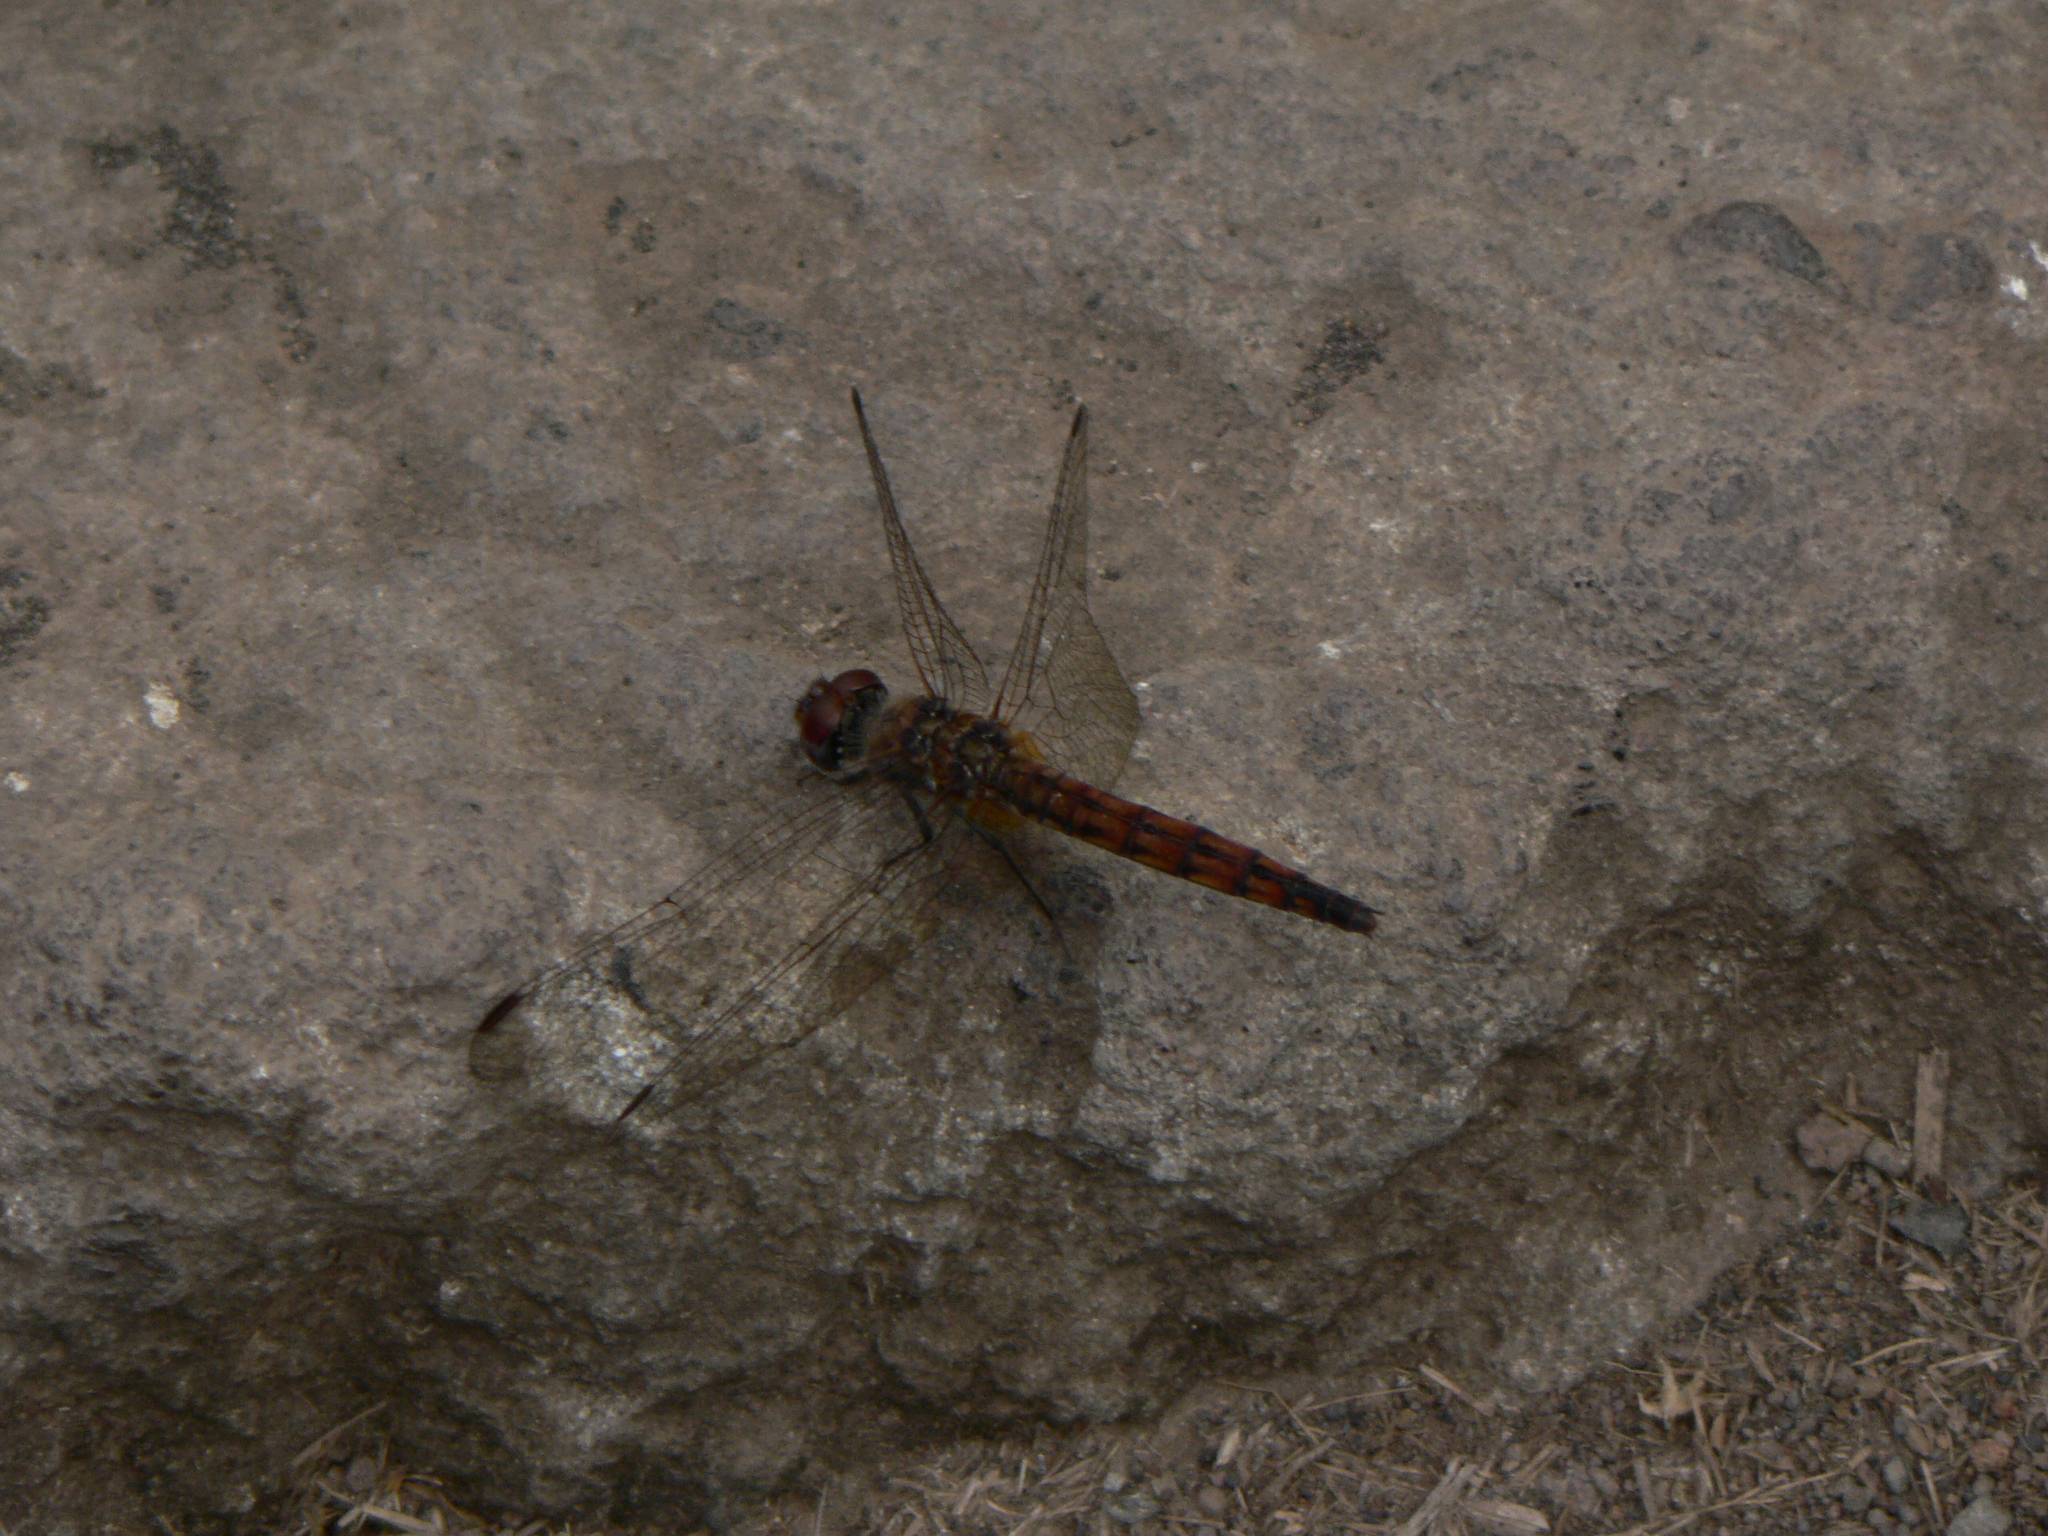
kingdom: Animalia
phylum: Arthropoda
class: Insecta
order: Odonata
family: Libellulidae
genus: Trithemis
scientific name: Trithemis annulata
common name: Violet dropwing
